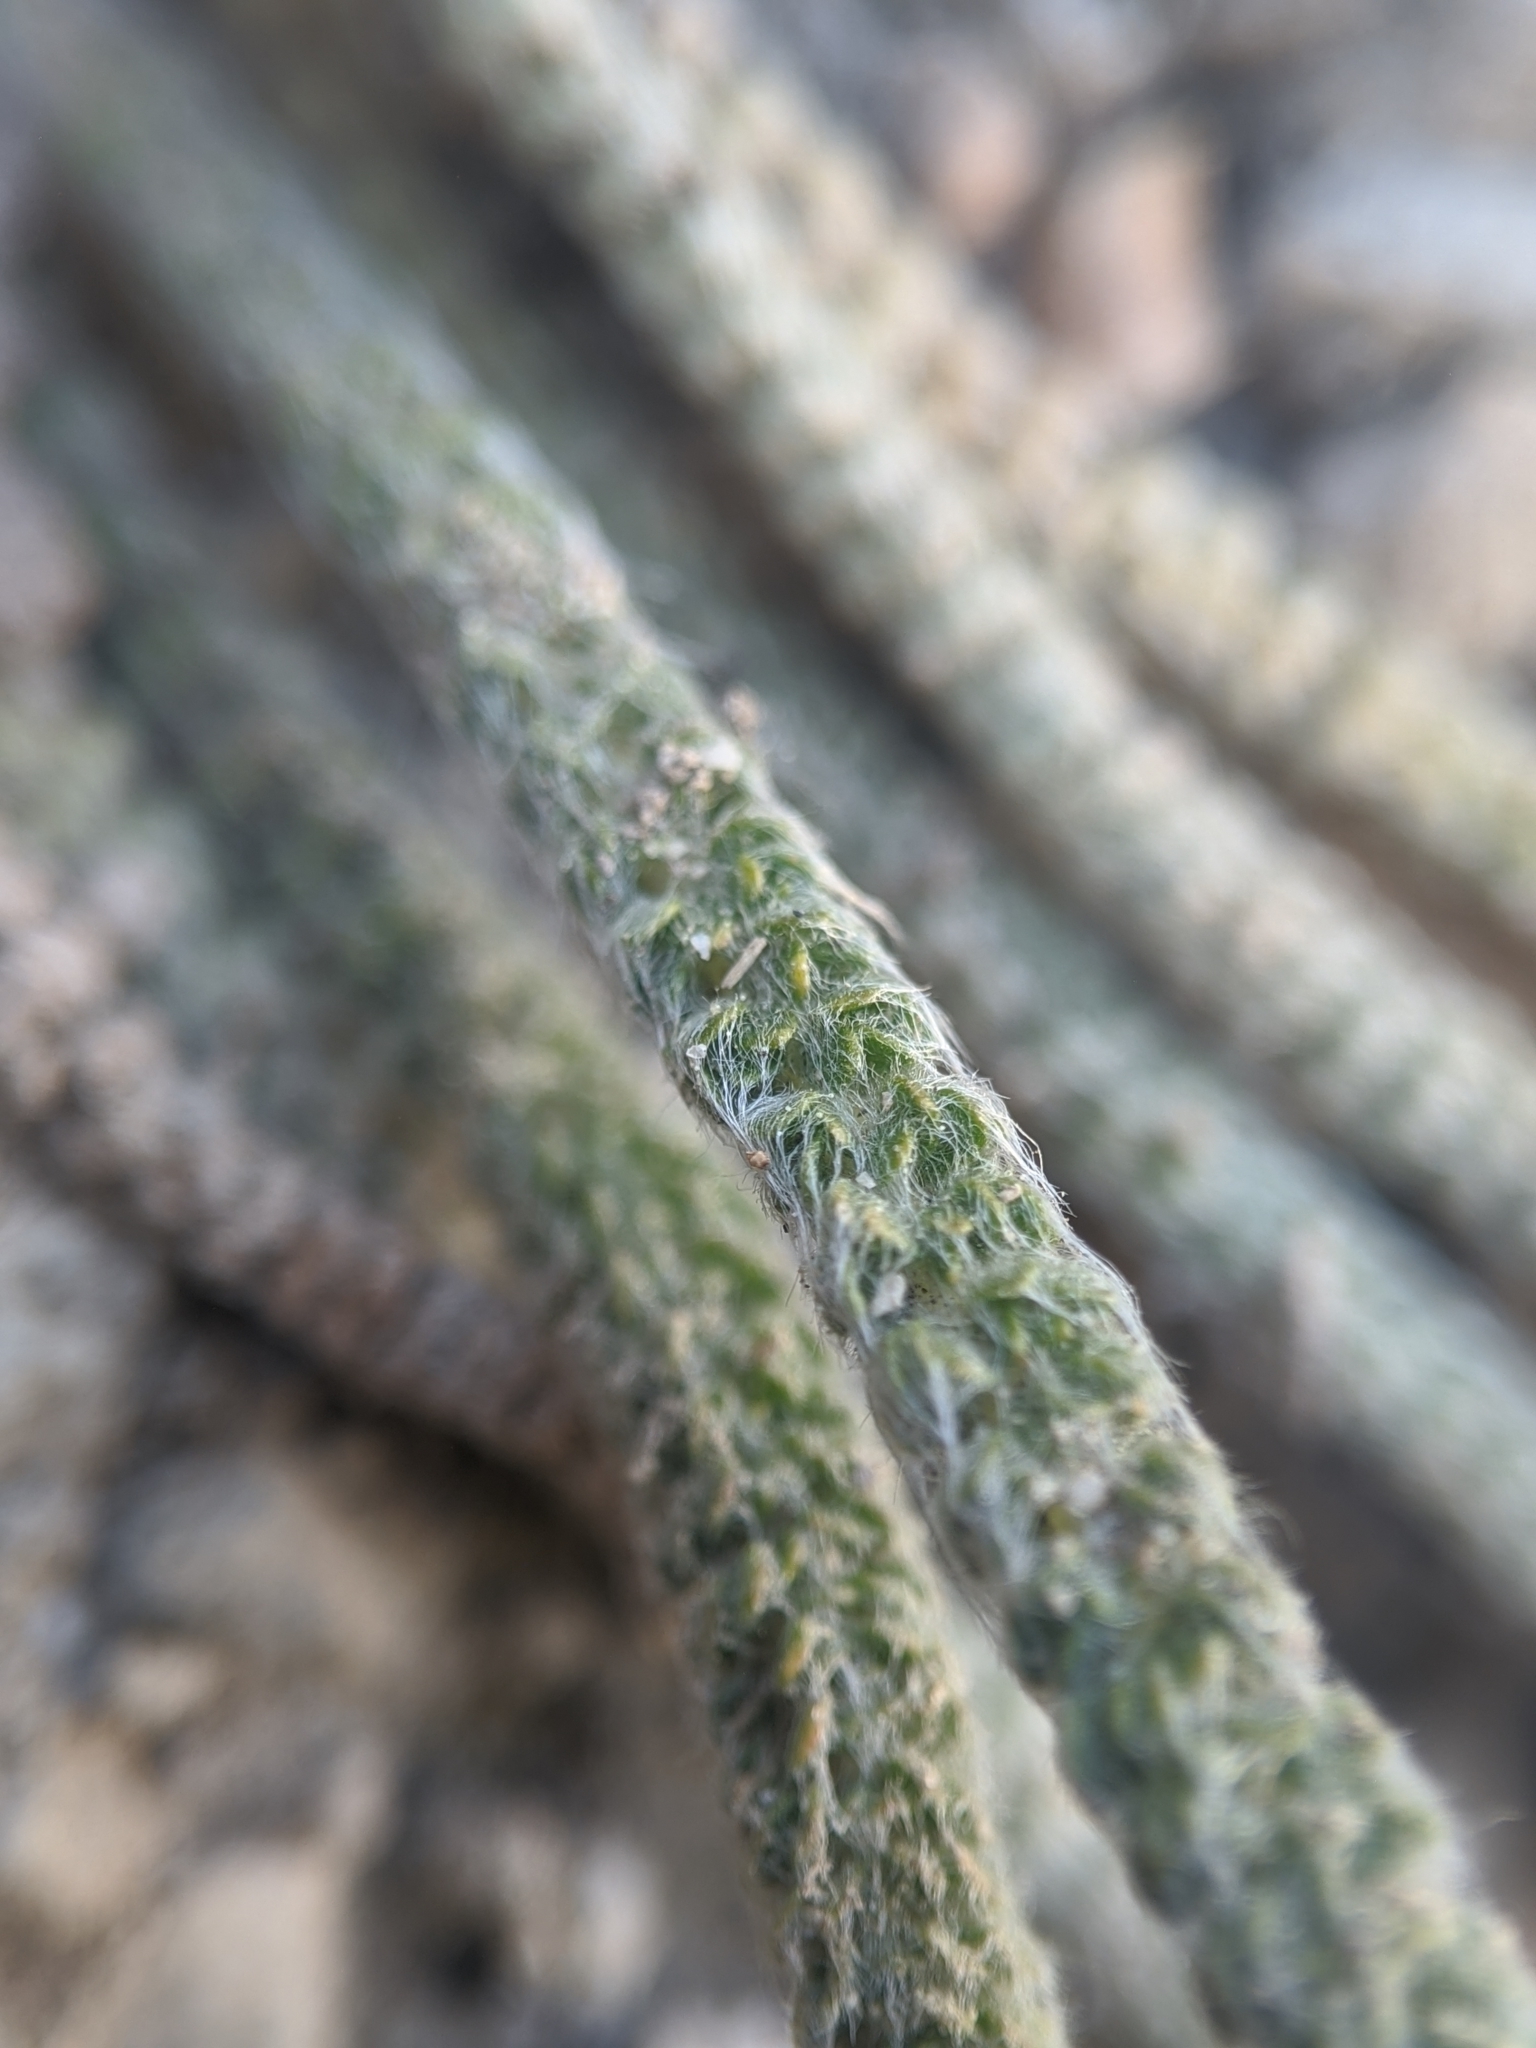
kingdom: Plantae
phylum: Tracheophyta
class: Magnoliopsida
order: Rosales
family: Rosaceae
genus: Potentilla
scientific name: Potentilla santolinoides
